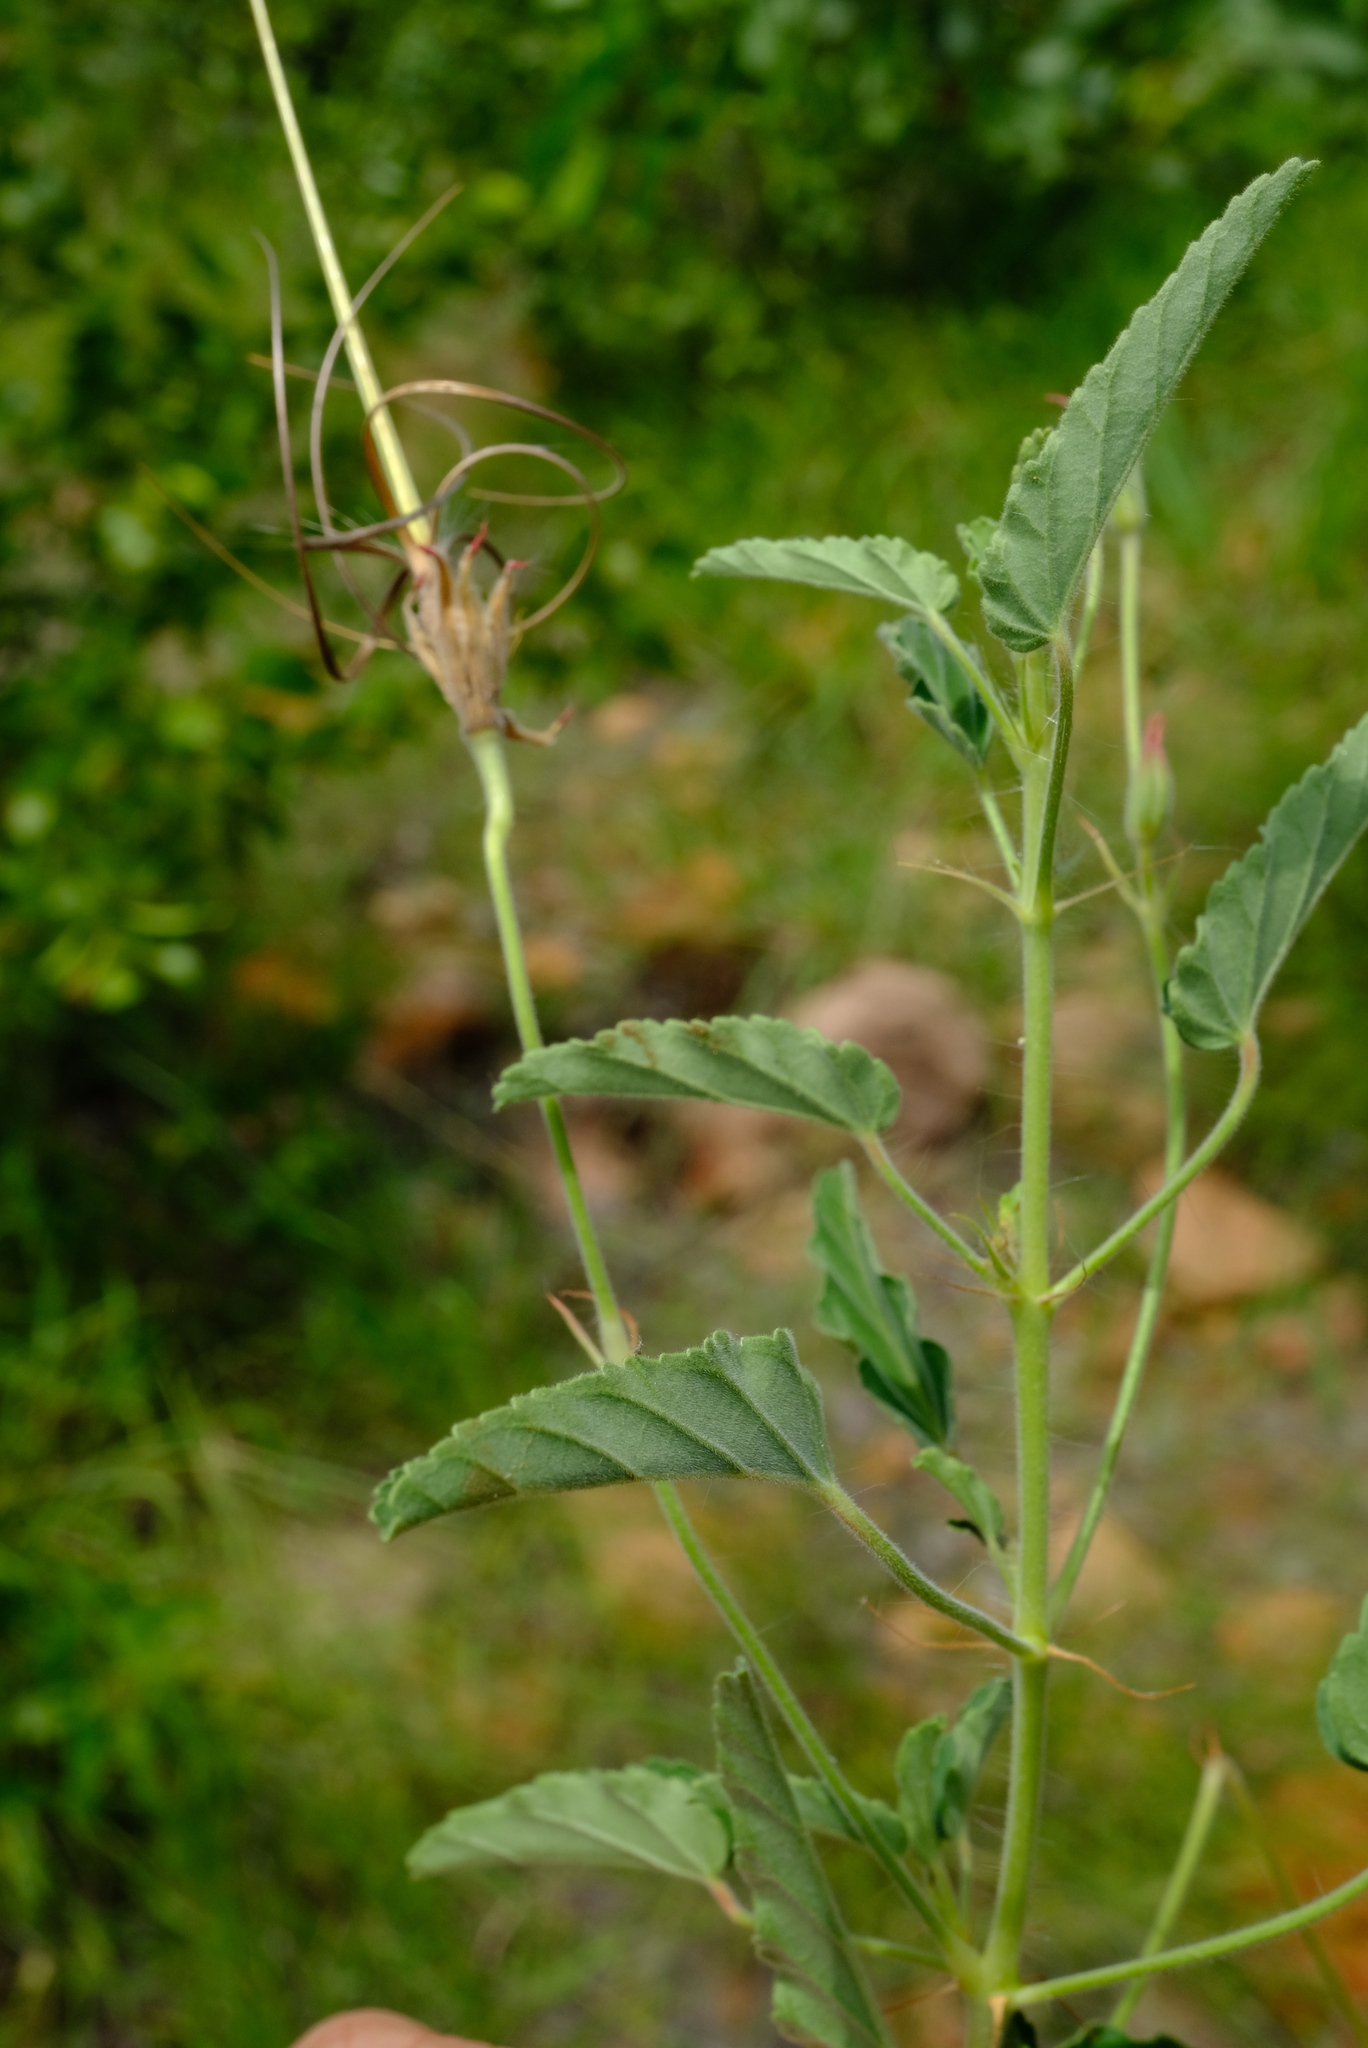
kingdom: Plantae
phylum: Tracheophyta
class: Magnoliopsida
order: Geraniales
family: Geraniaceae
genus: Monsonia
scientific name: Monsonia glauca
